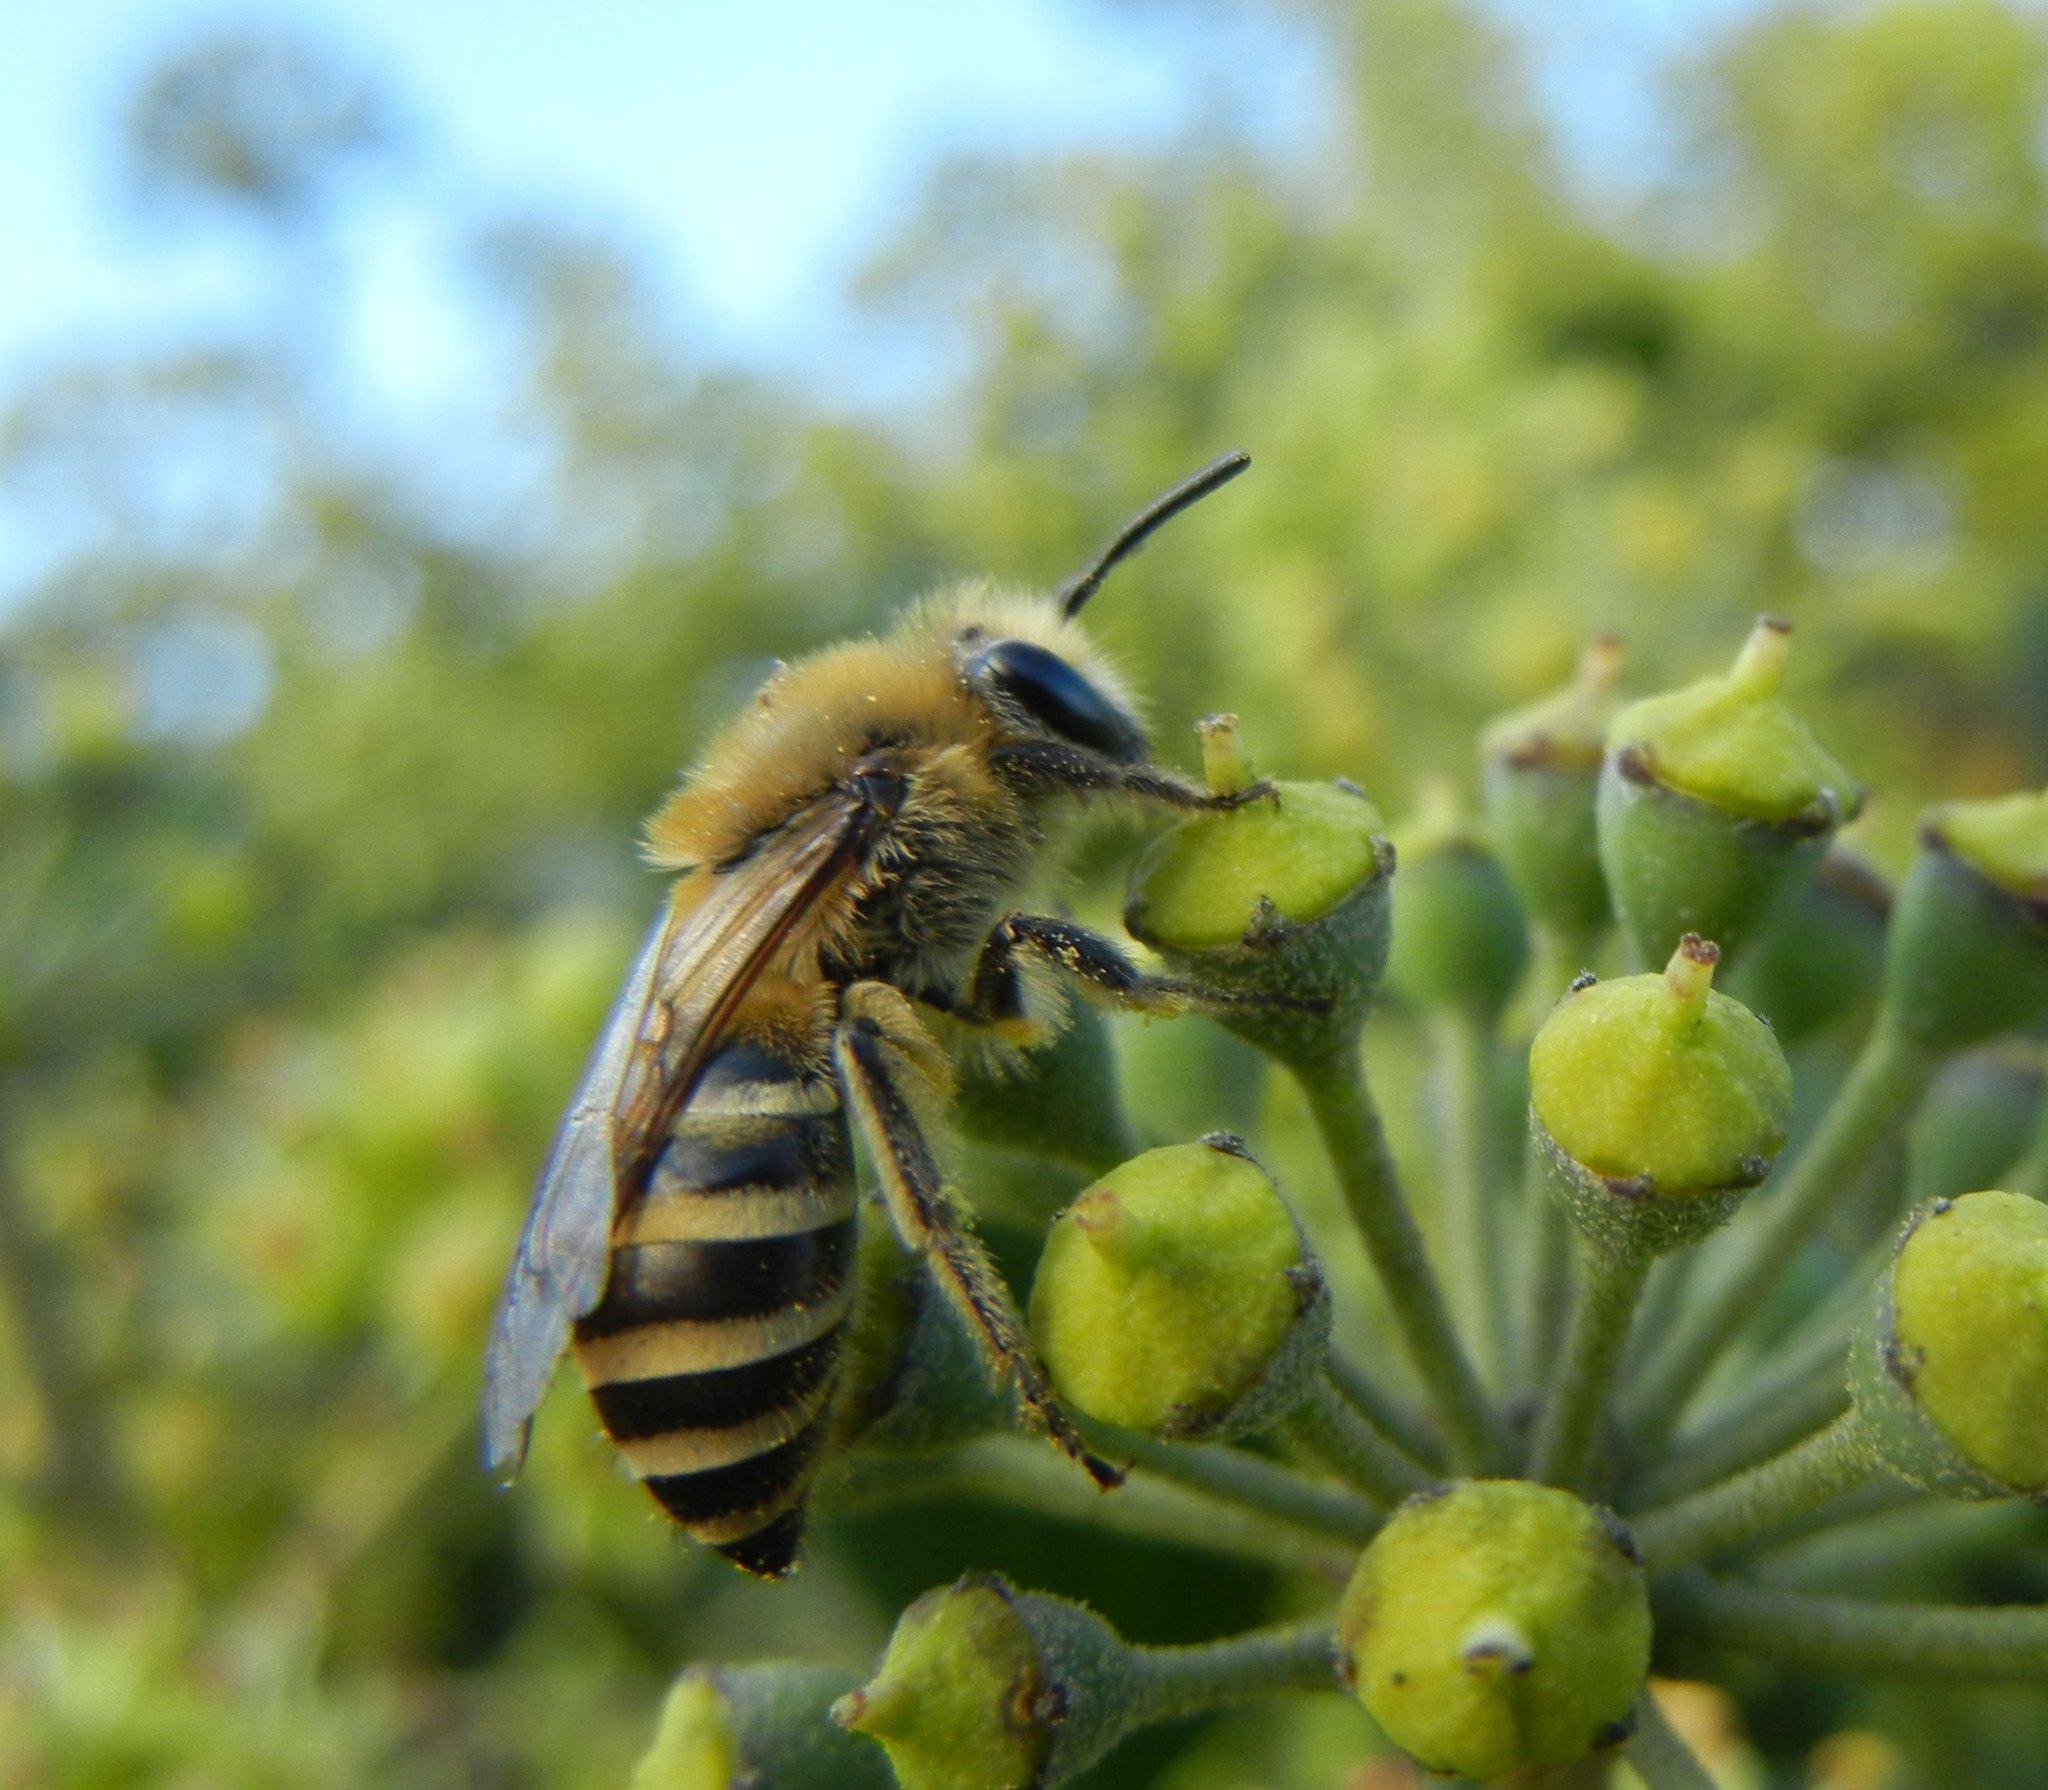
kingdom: Animalia
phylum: Arthropoda
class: Insecta
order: Hymenoptera
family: Colletidae
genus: Colletes
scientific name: Colletes hederae
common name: Ivy bee
